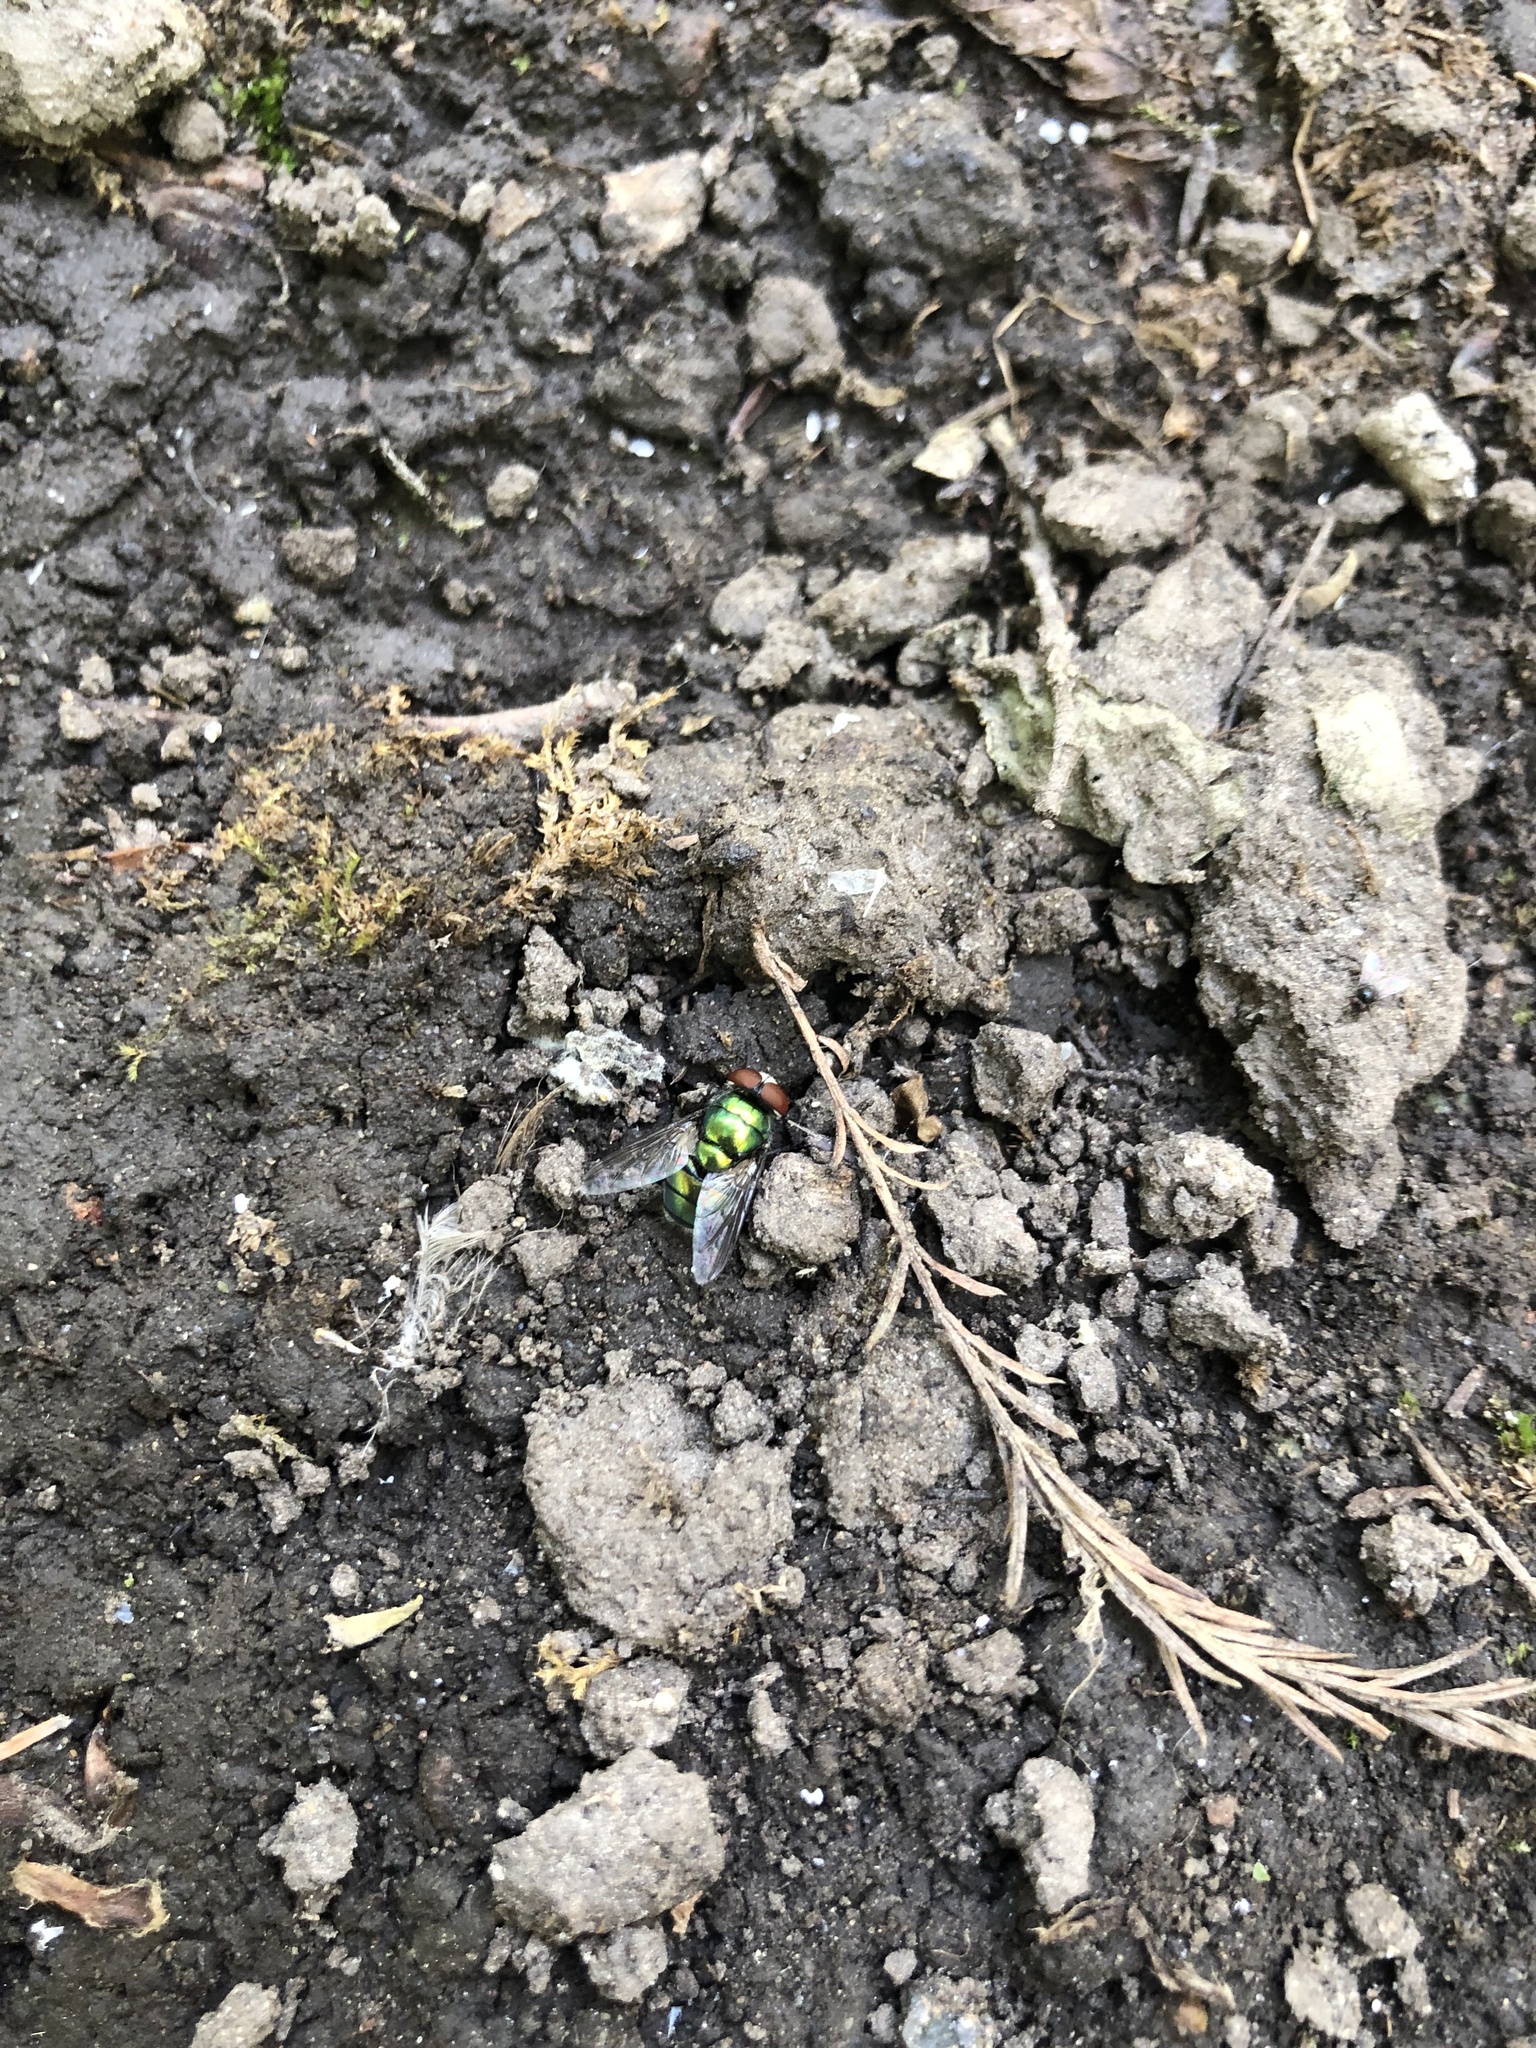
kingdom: Animalia
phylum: Arthropoda
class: Insecta
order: Diptera
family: Calliphoridae
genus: Chrysomya
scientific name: Chrysomya albiceps
